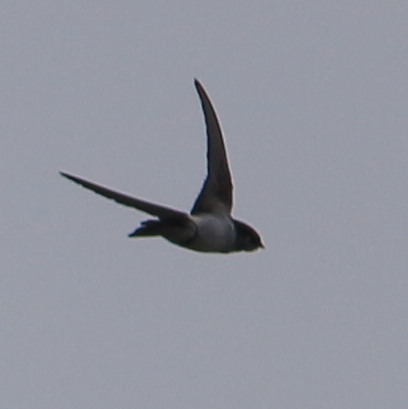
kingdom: Animalia
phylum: Chordata
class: Aves
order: Passeriformes
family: Hirundinidae
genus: Hirundo
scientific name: Hirundo rustica
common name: Barn swallow
